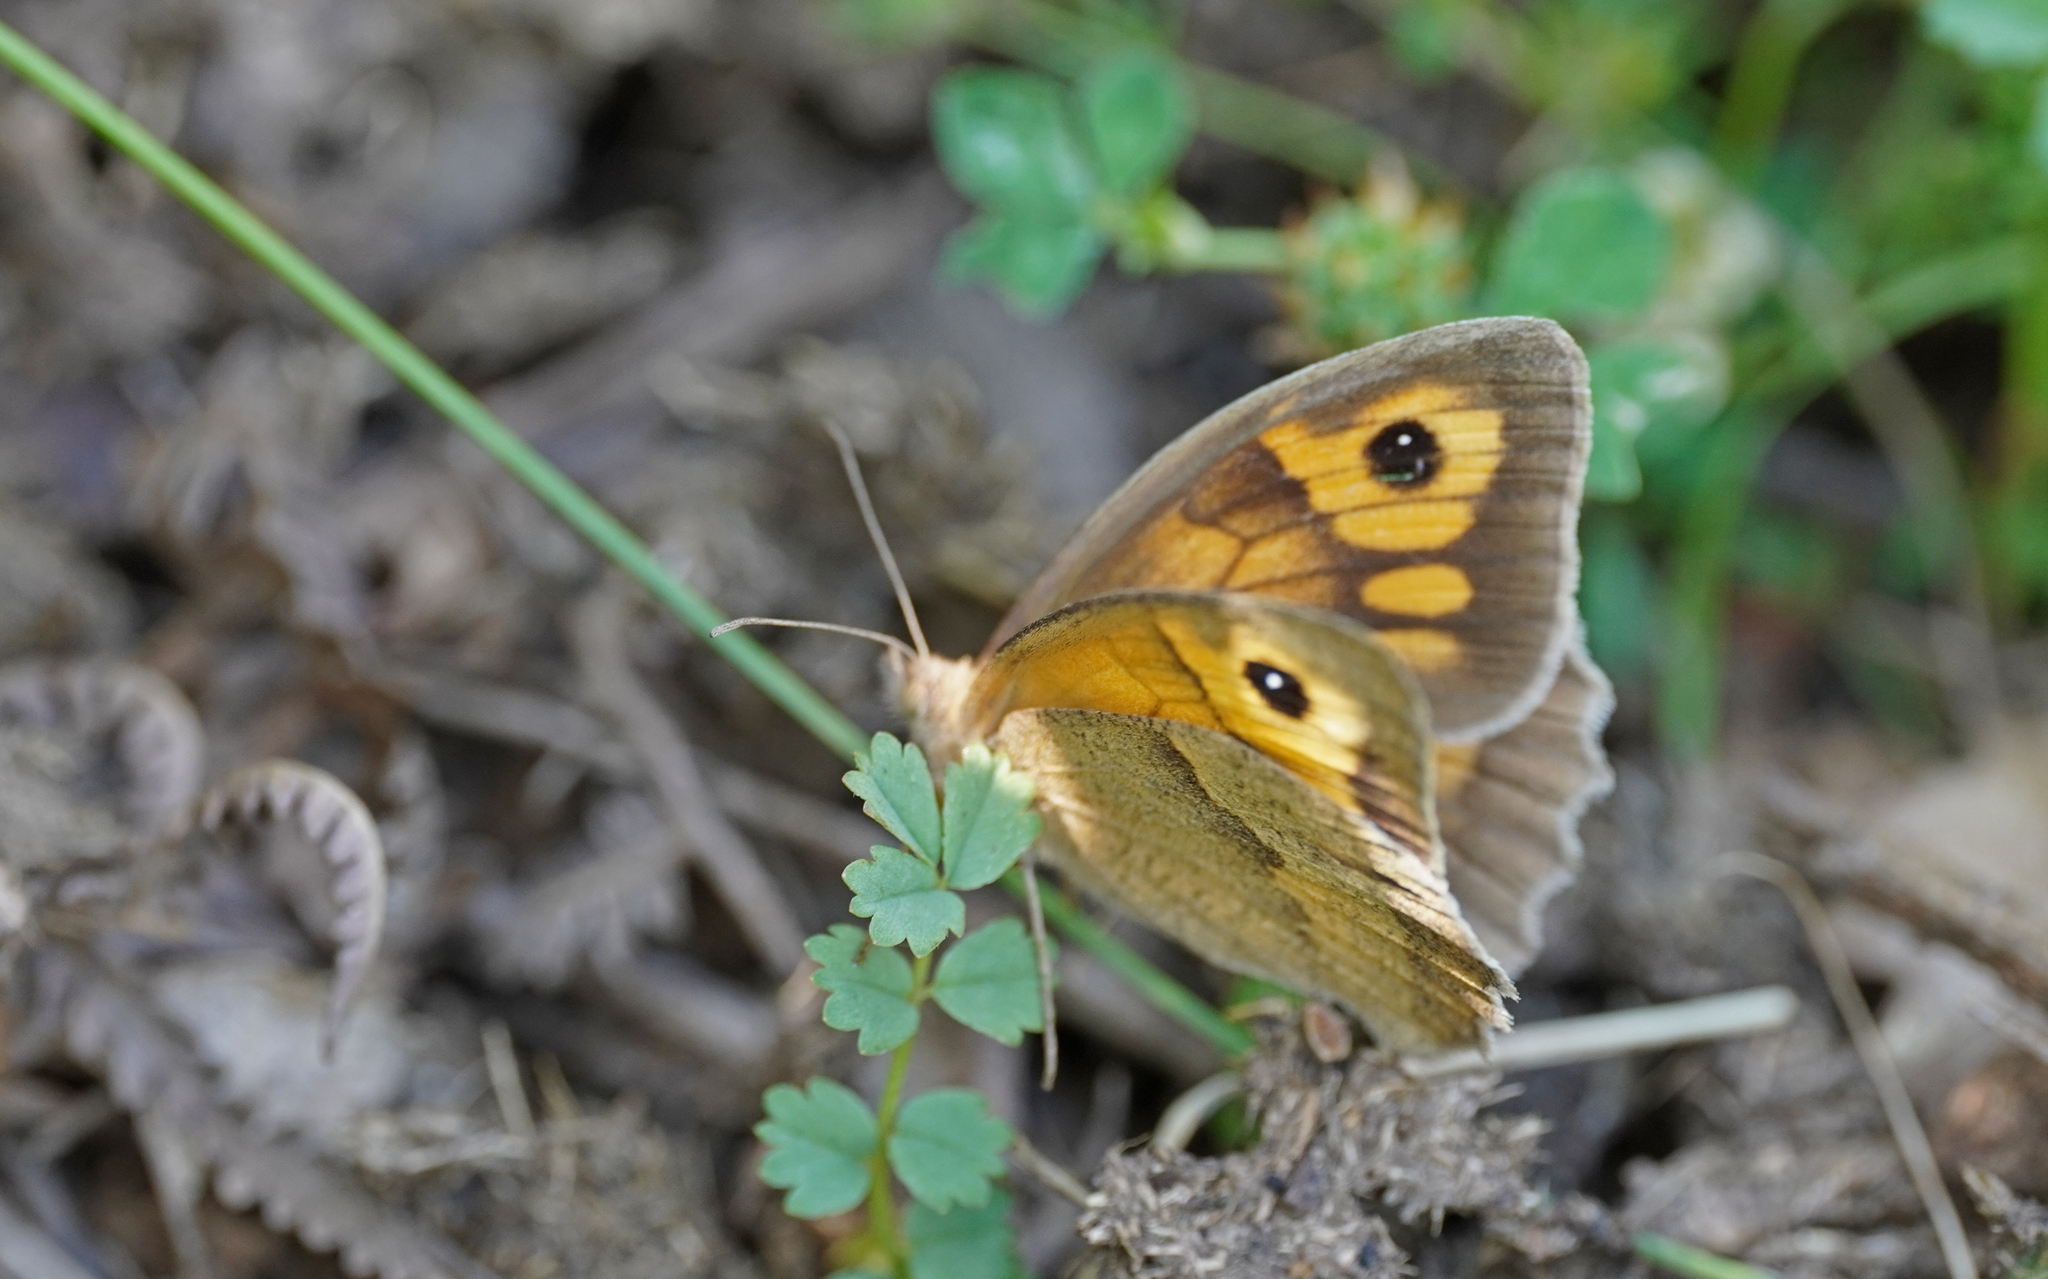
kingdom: Animalia
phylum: Arthropoda
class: Insecta
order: Lepidoptera
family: Nymphalidae
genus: Maniola
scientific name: Maniola jurtina
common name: Meadow brown
